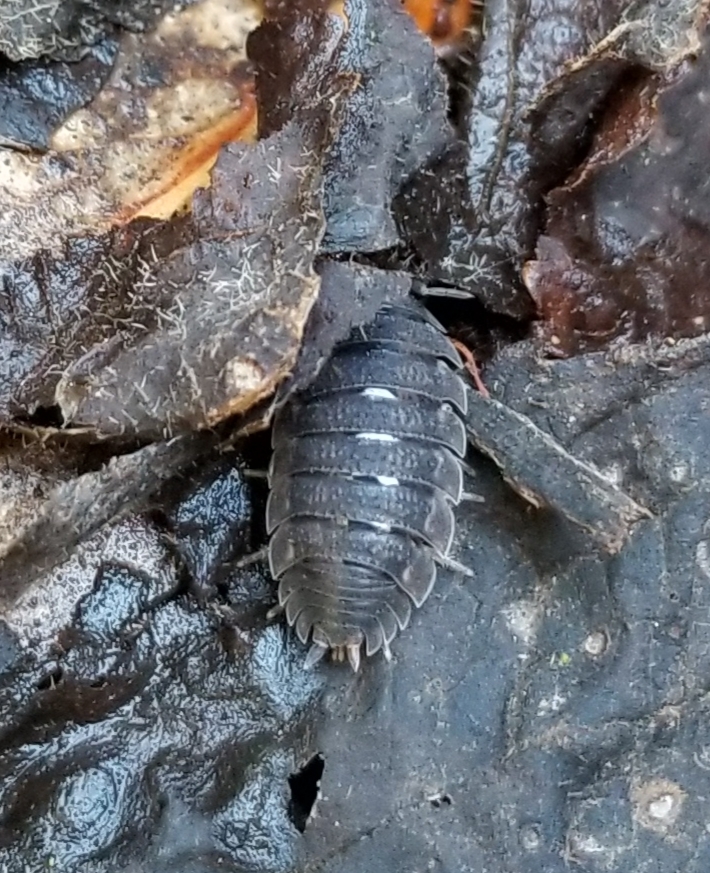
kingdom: Animalia
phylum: Arthropoda
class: Malacostraca
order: Isopoda
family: Porcellionidae
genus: Porcellio
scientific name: Porcellio scaber
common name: Common rough woodlouse
